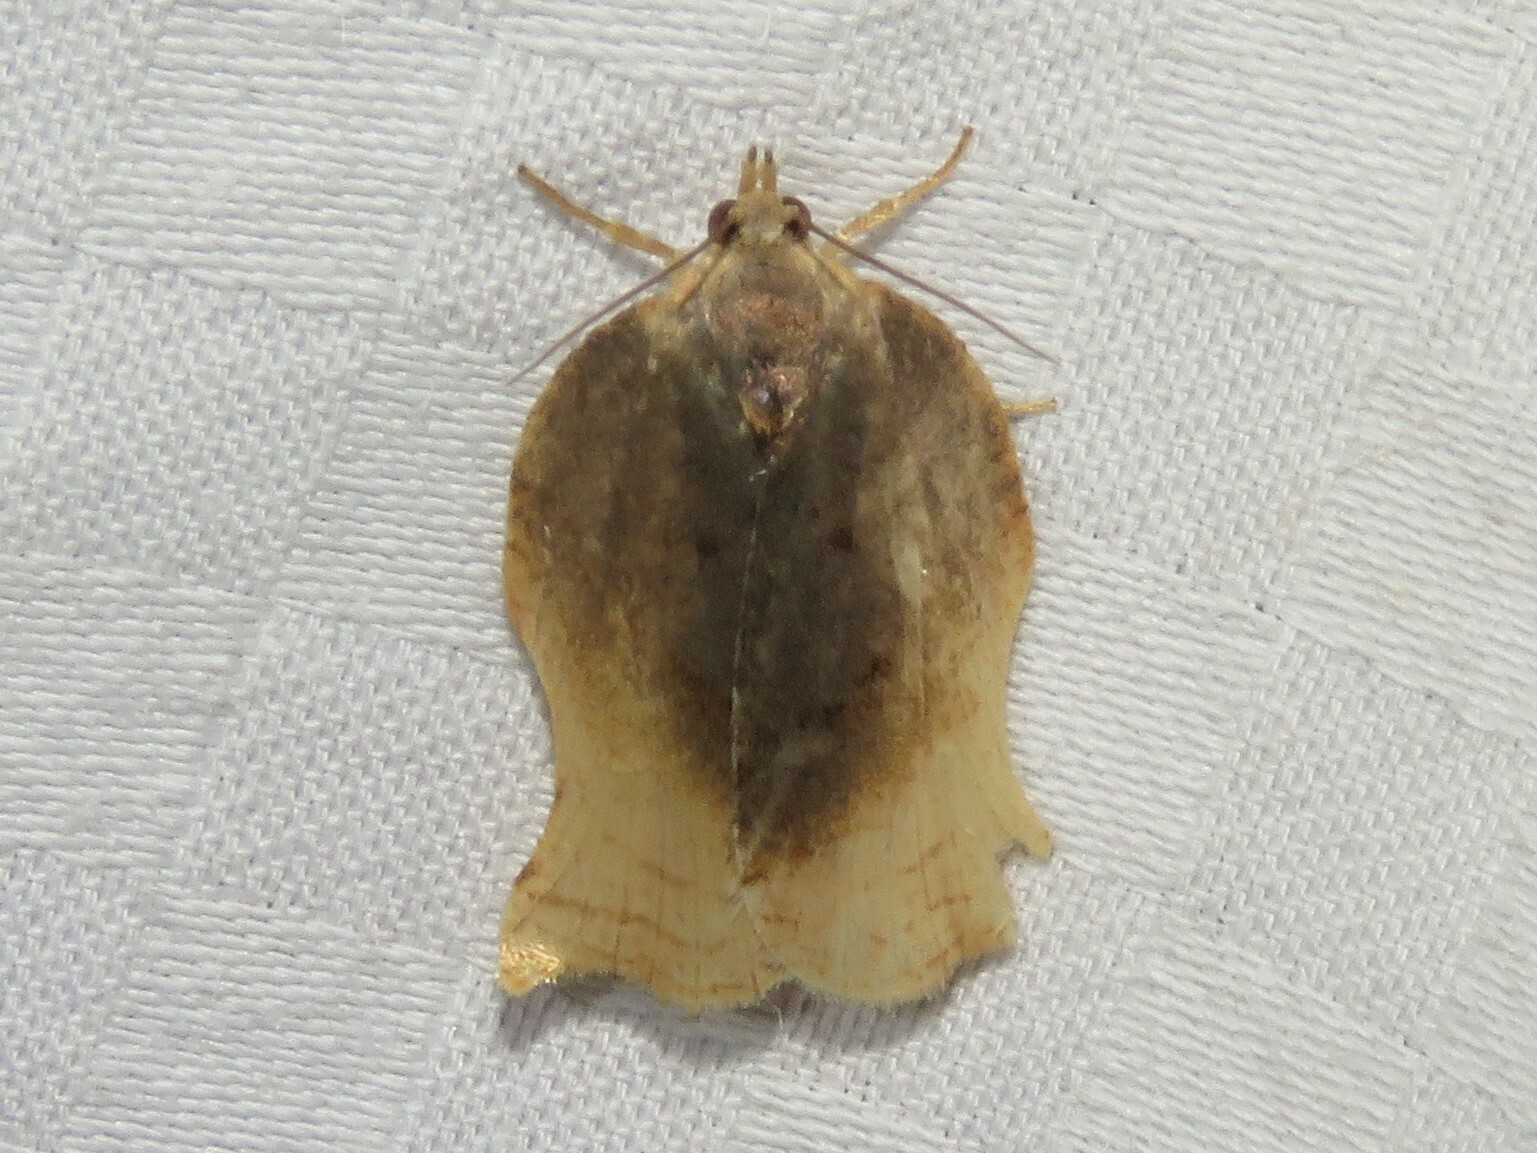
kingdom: Animalia
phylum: Arthropoda
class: Insecta
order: Lepidoptera
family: Tortricidae
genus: Archips
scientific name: Archips purpurana
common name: Omnivorous leafroller
